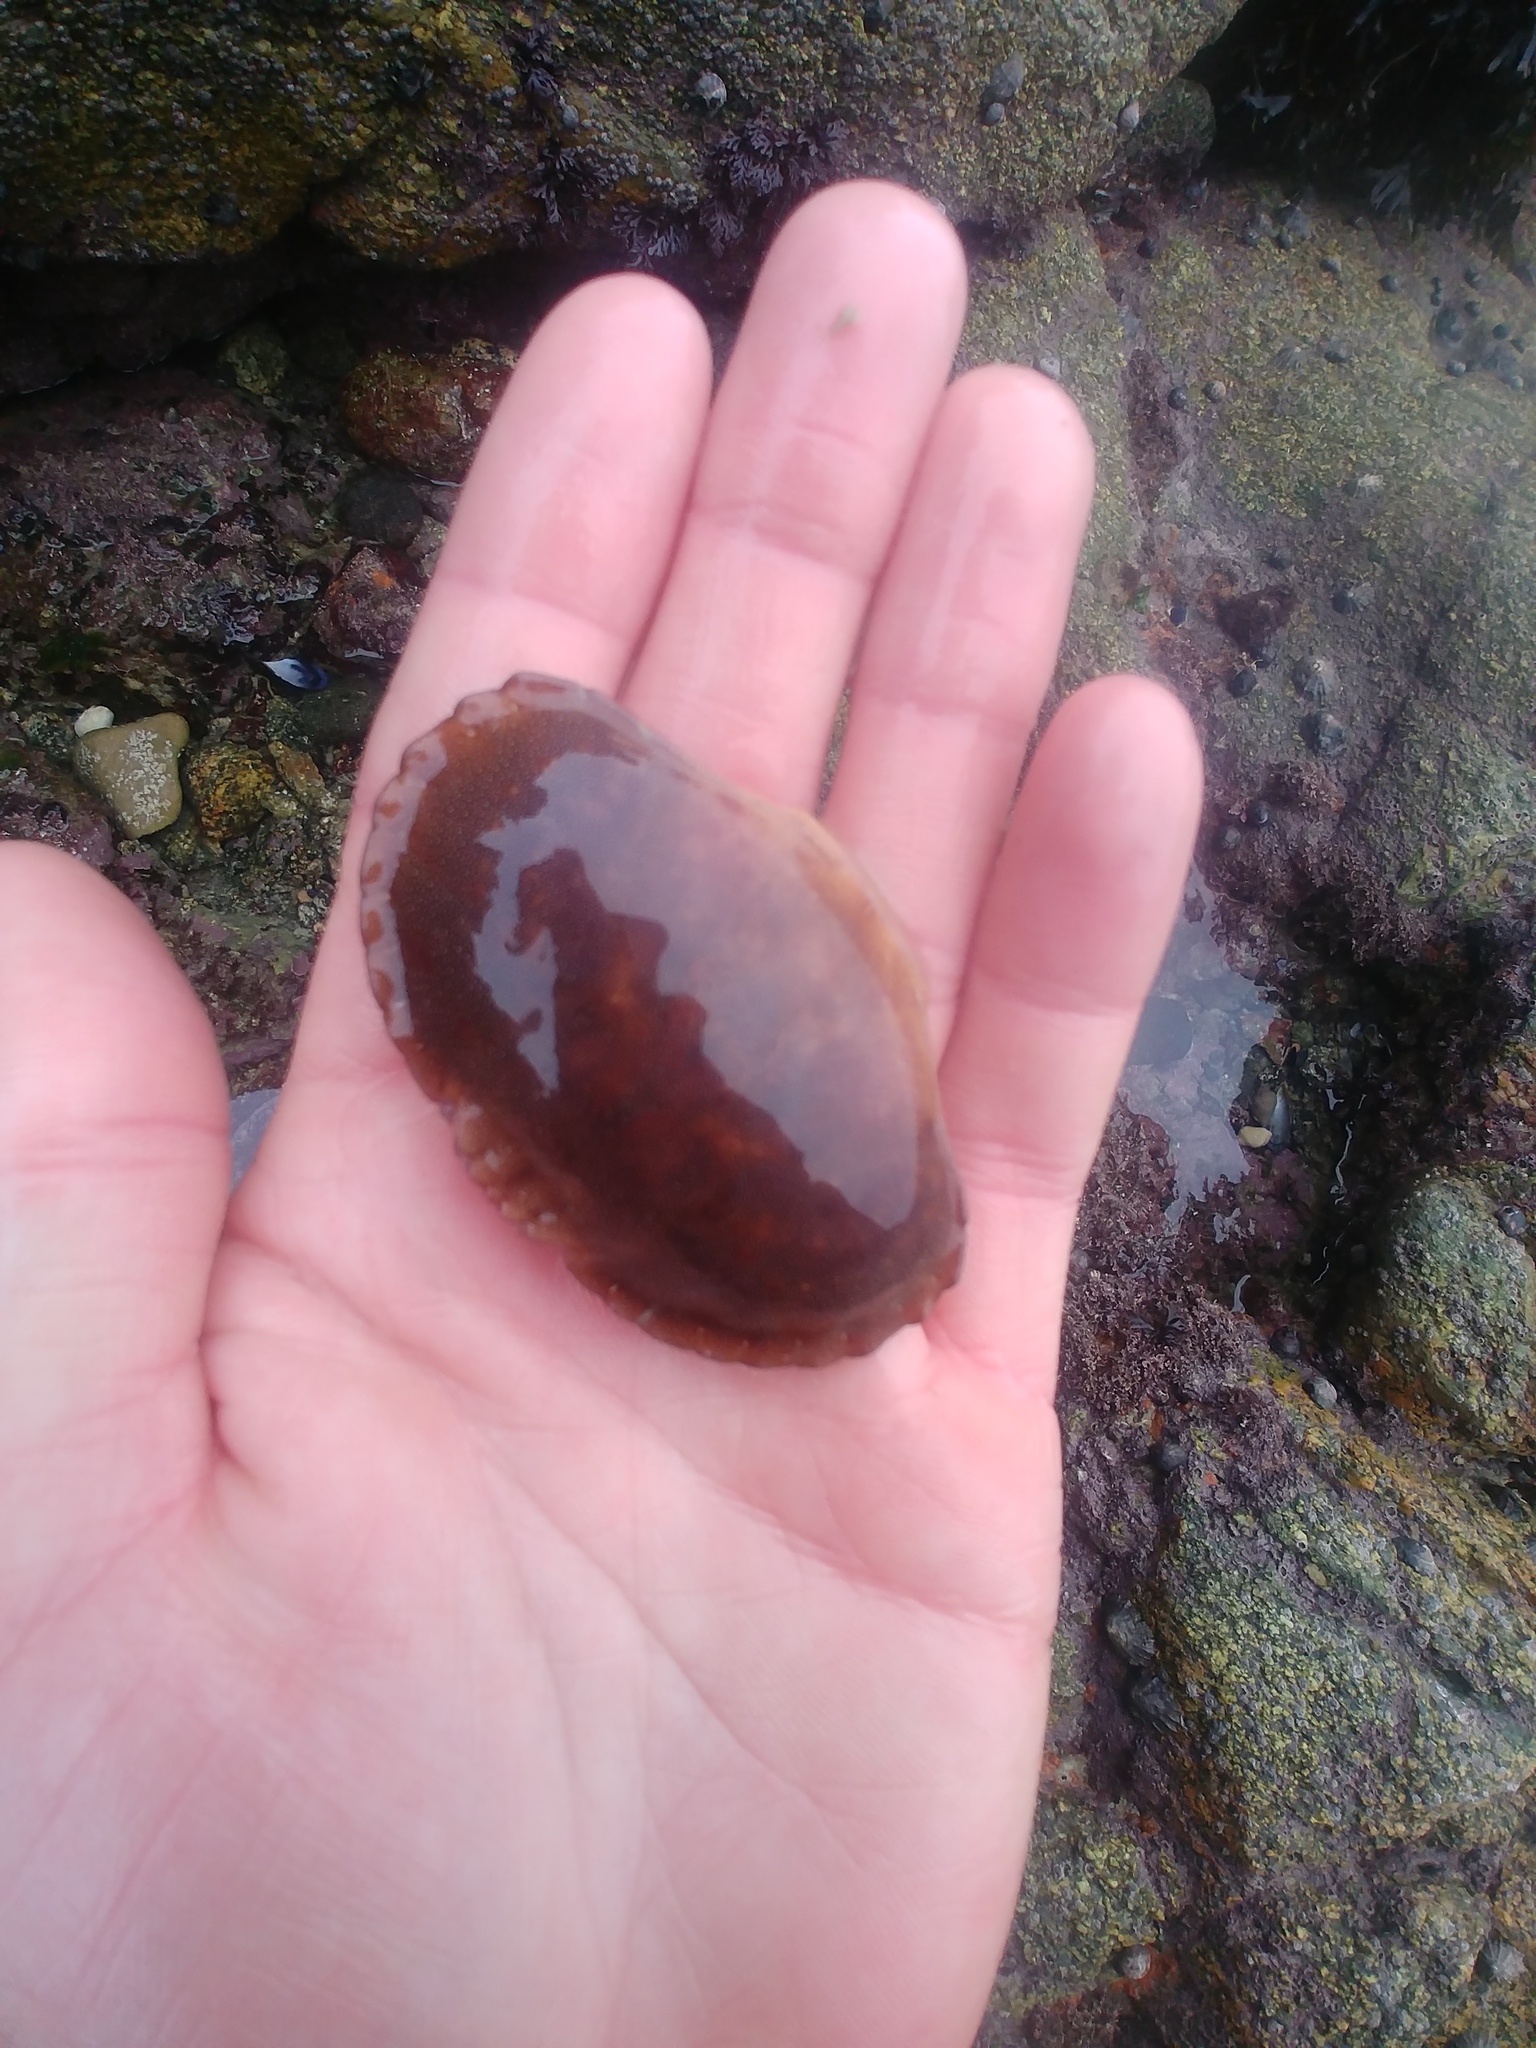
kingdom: Animalia
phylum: Arthropoda
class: Malacostraca
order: Decapoda
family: Cancridae
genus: Cancer
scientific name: Cancer pagurus
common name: Edible crab
